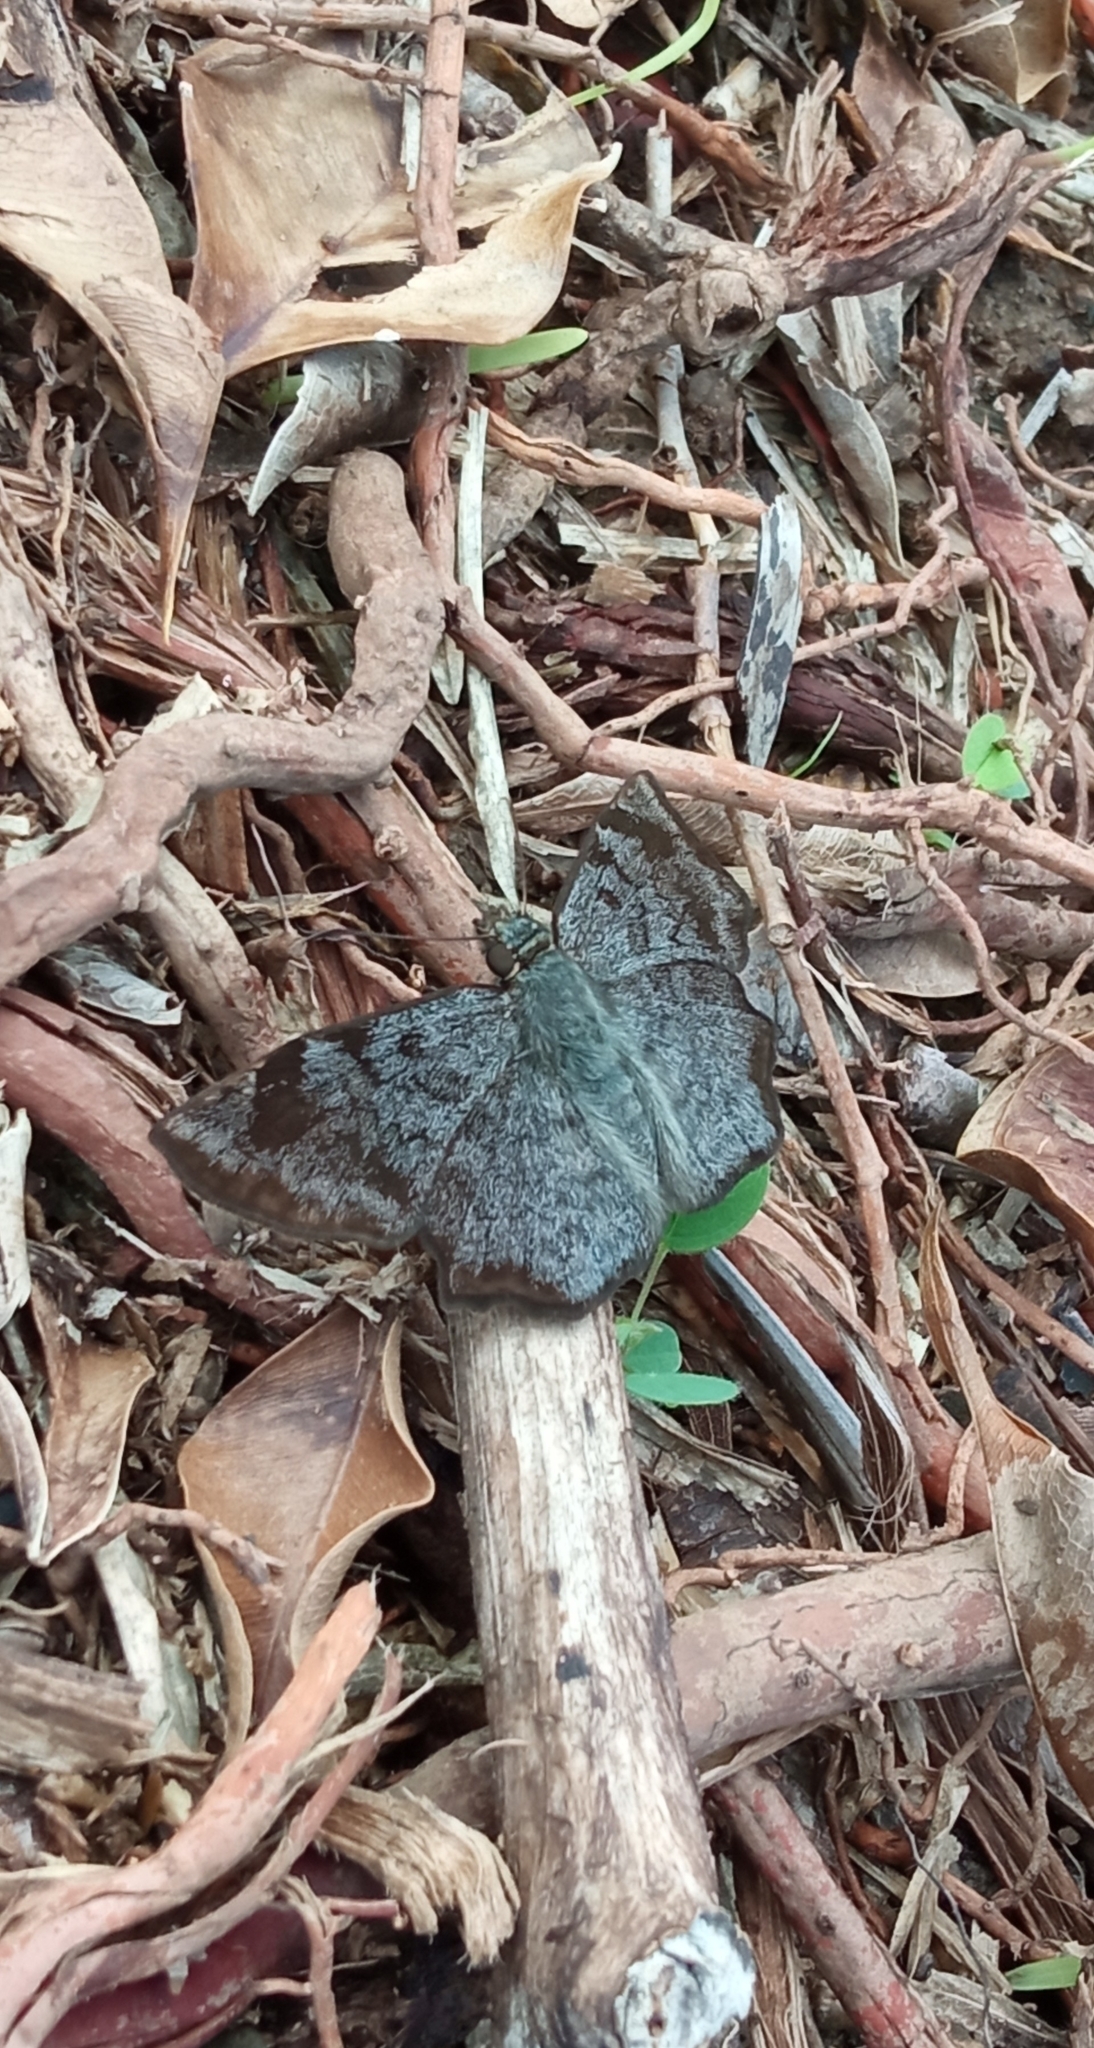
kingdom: Animalia
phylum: Arthropoda
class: Insecta
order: Lepidoptera
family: Hesperiidae
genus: Antigonus
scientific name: Antigonus erosus
